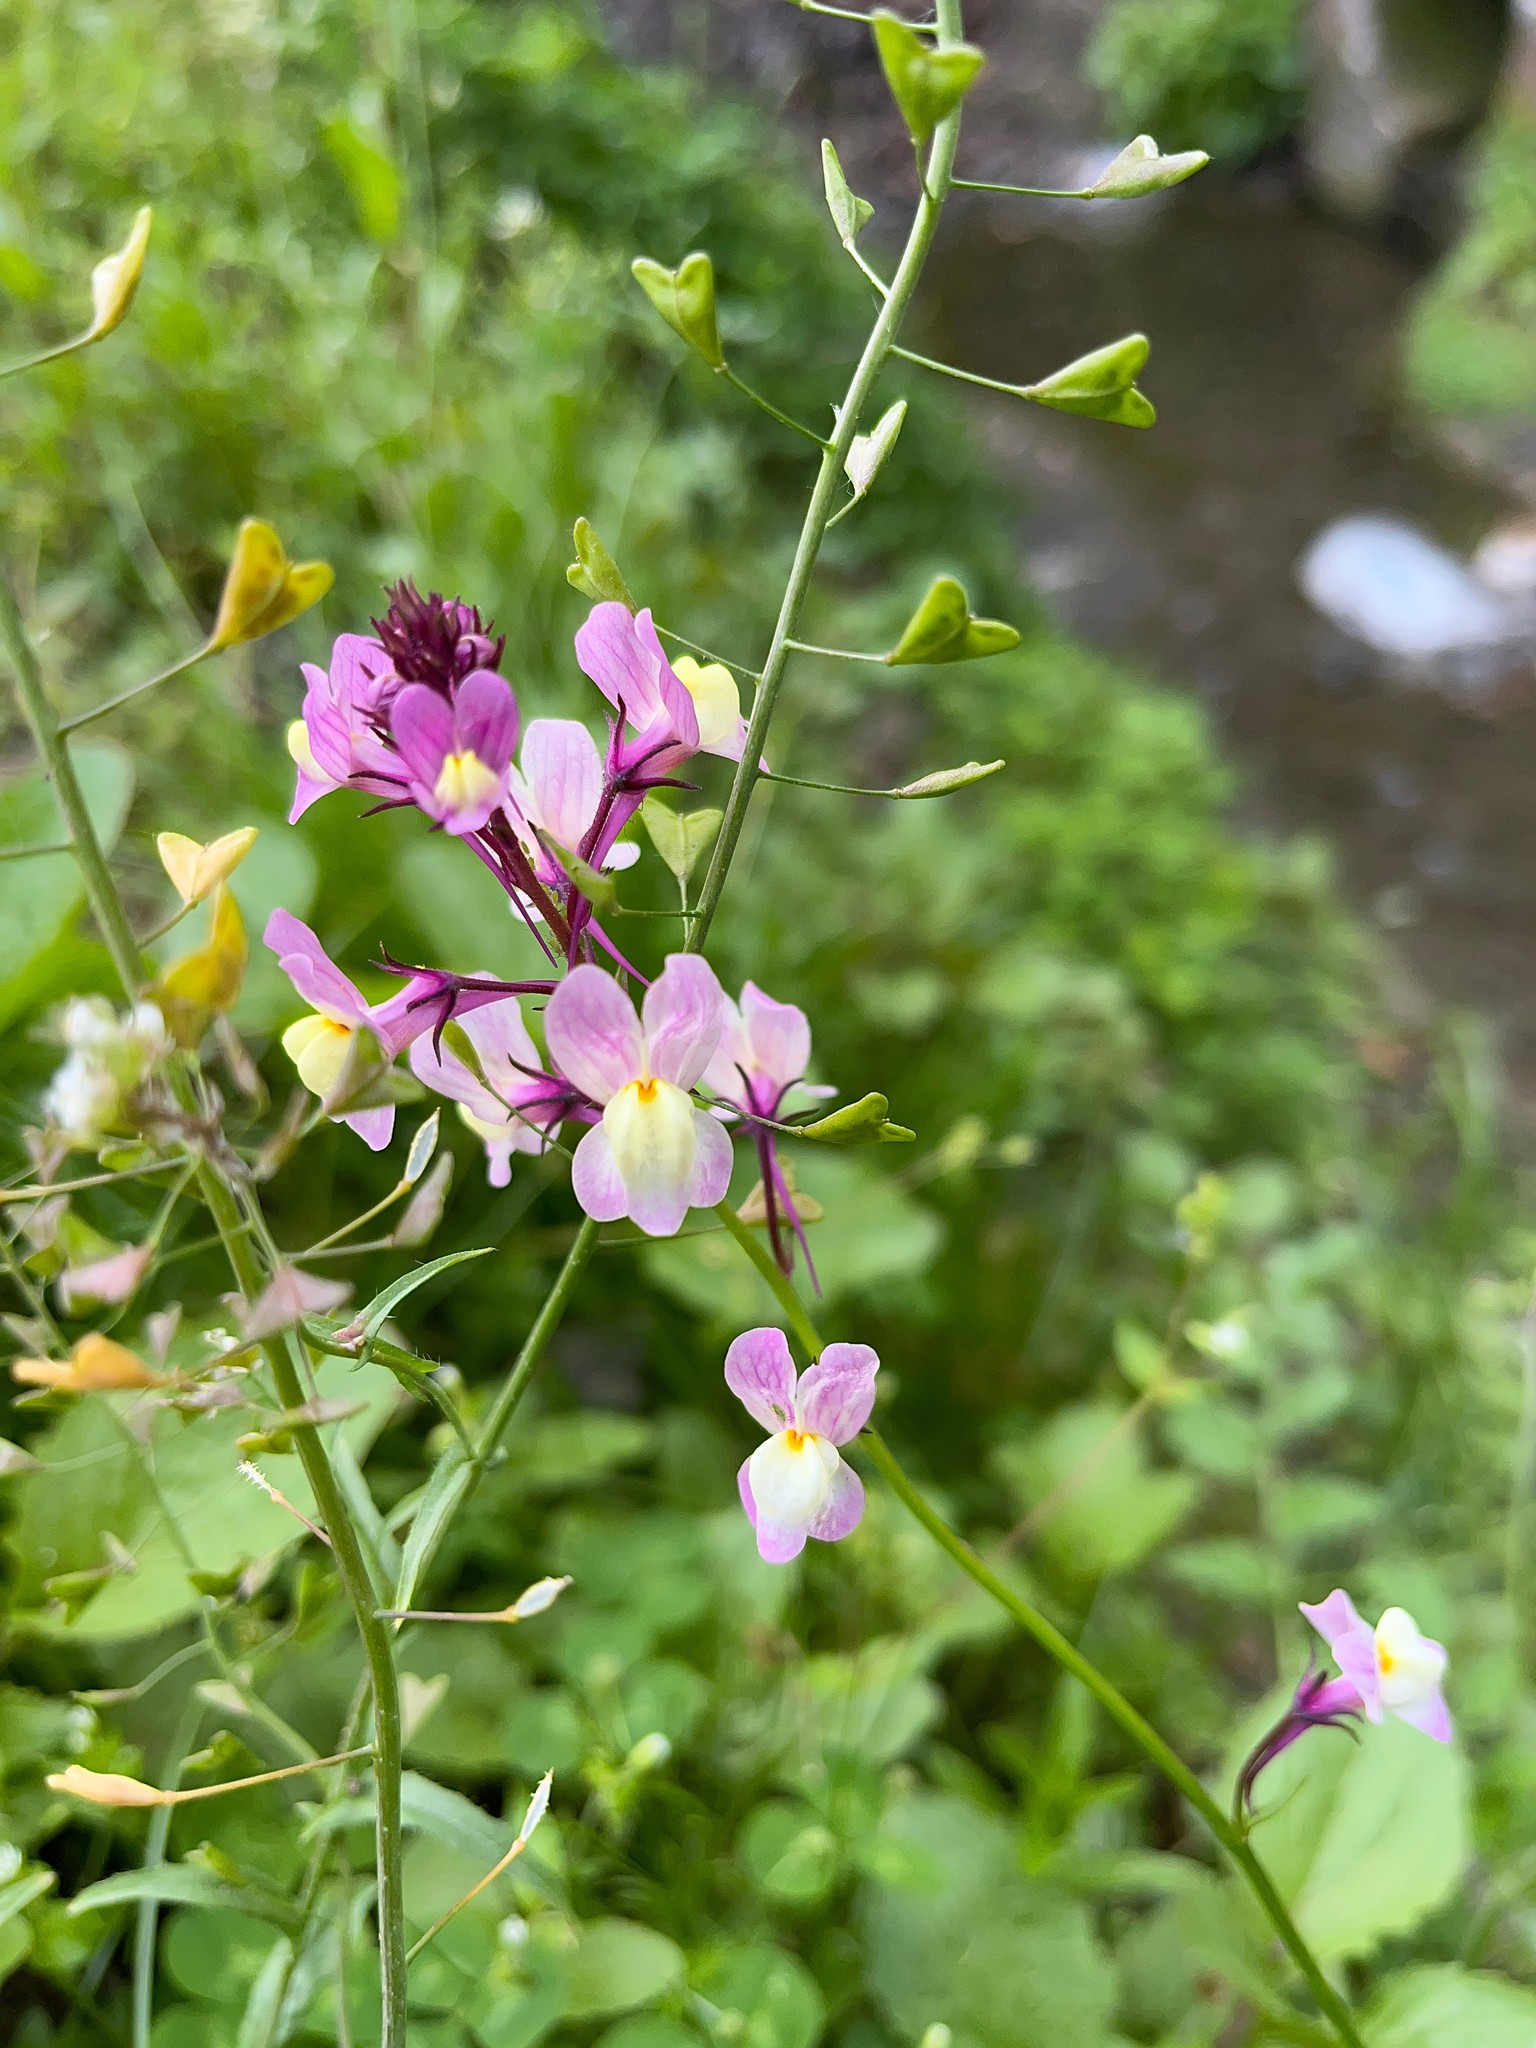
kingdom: Plantae
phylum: Tracheophyta
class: Magnoliopsida
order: Lamiales
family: Plantaginaceae
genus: Linaria
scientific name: Linaria maroccana
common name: Moroccan toadflax
